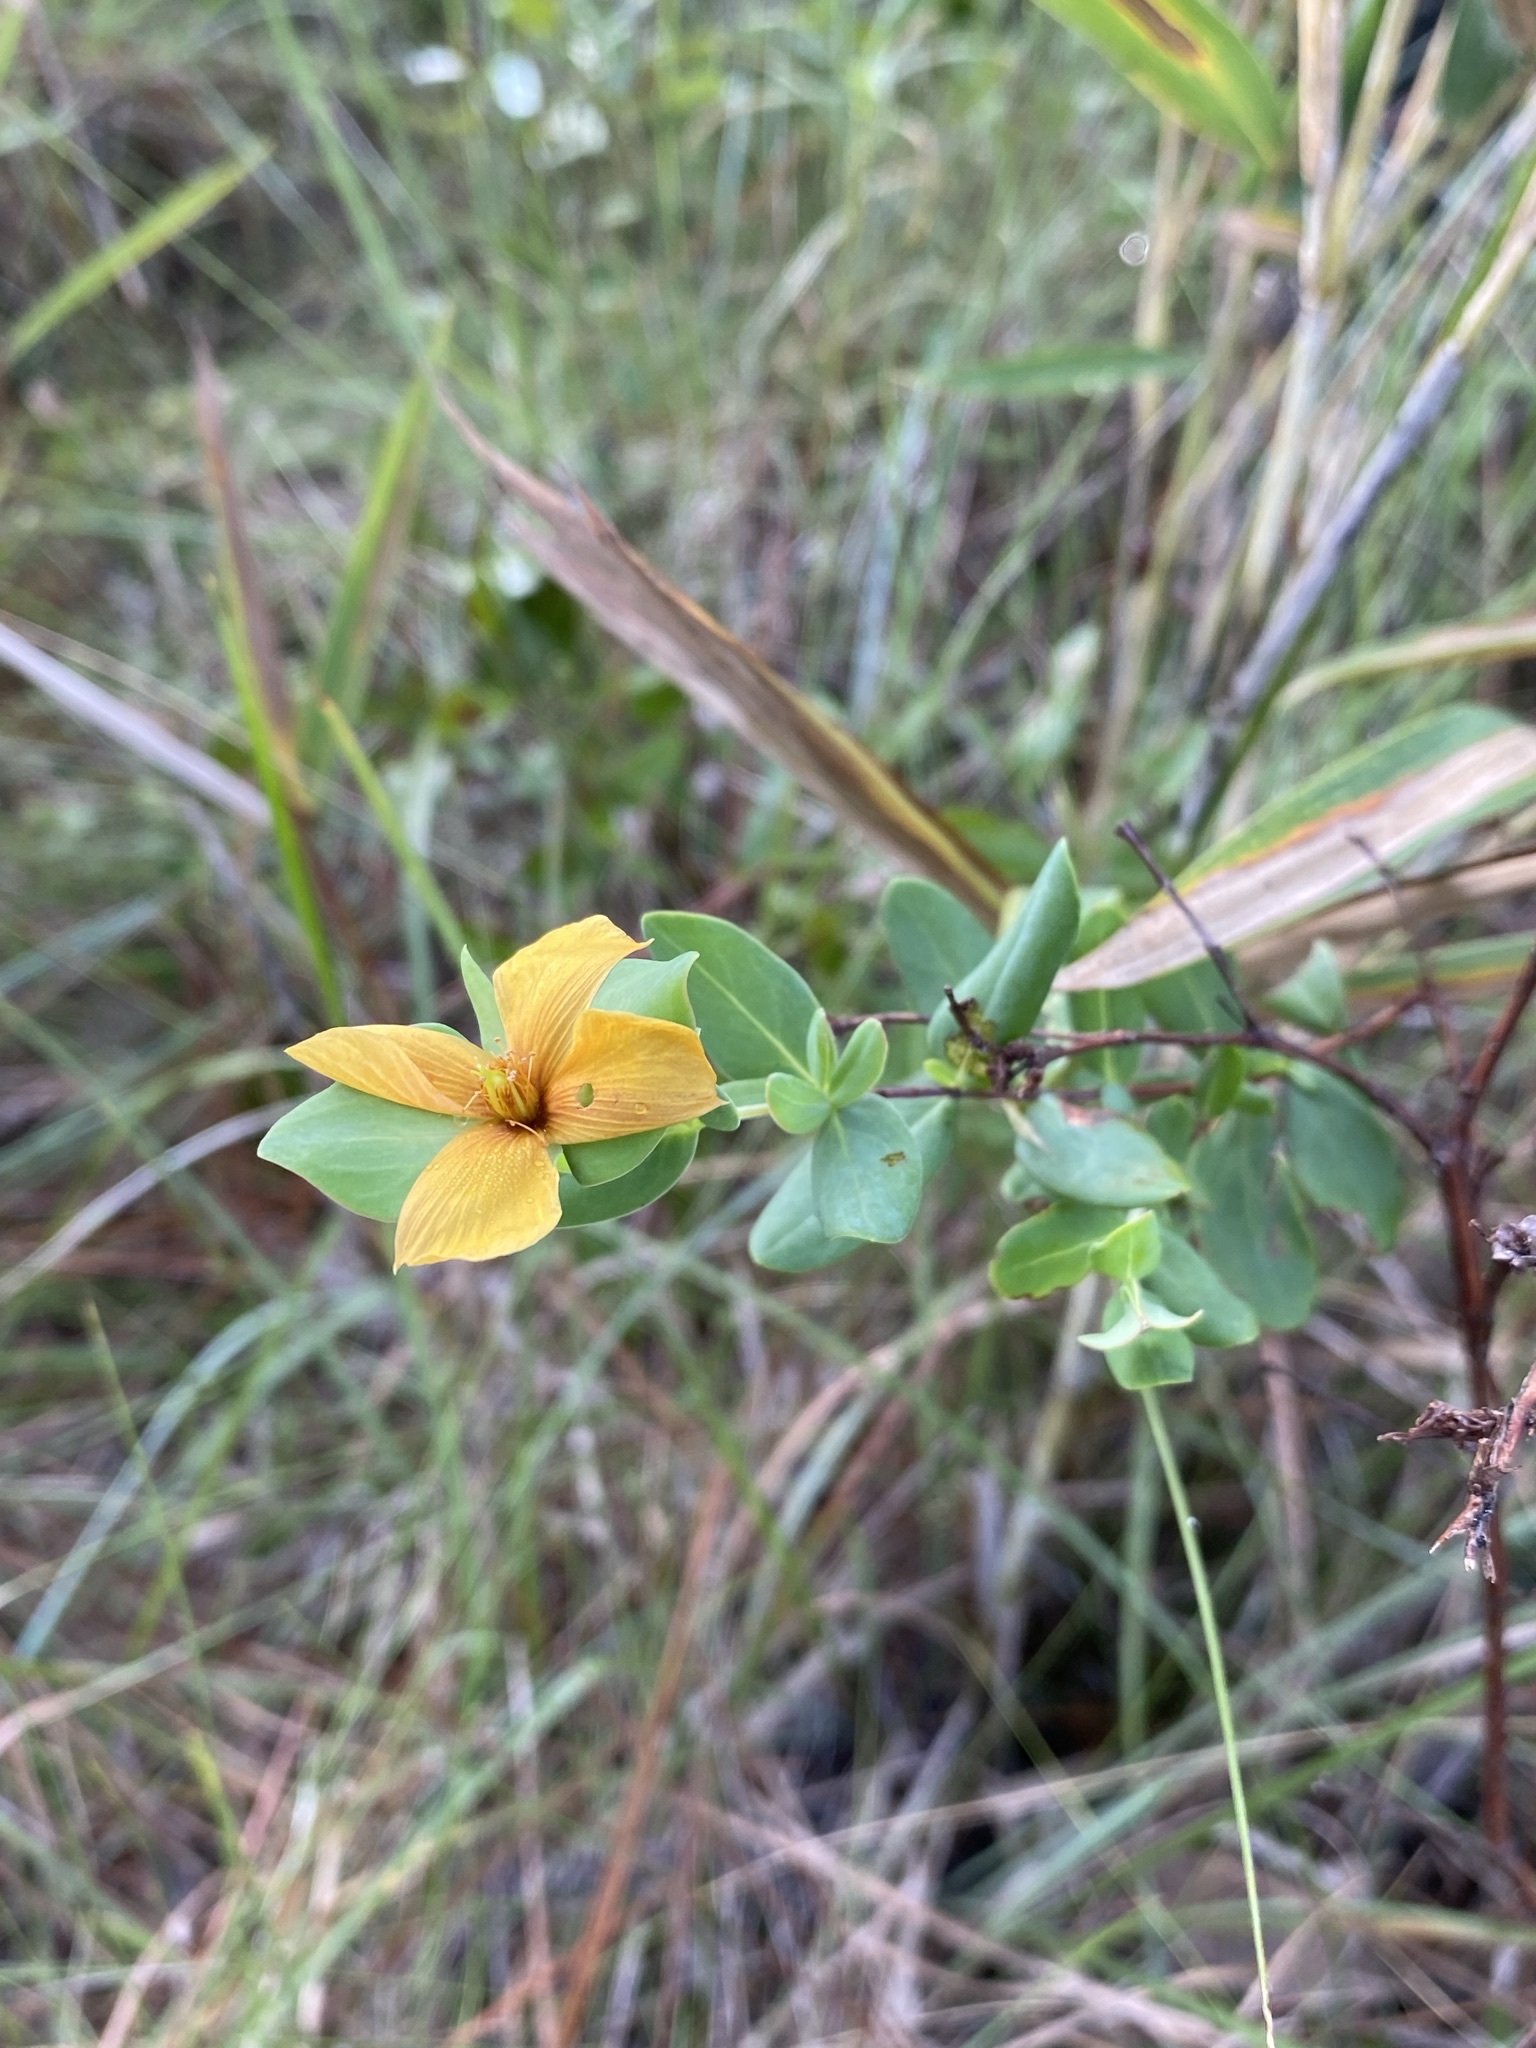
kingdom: Plantae
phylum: Tracheophyta
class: Magnoliopsida
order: Malpighiales
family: Hypericaceae
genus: Hypericum
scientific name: Hypericum crux-andreae
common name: St.-peter's-wort
